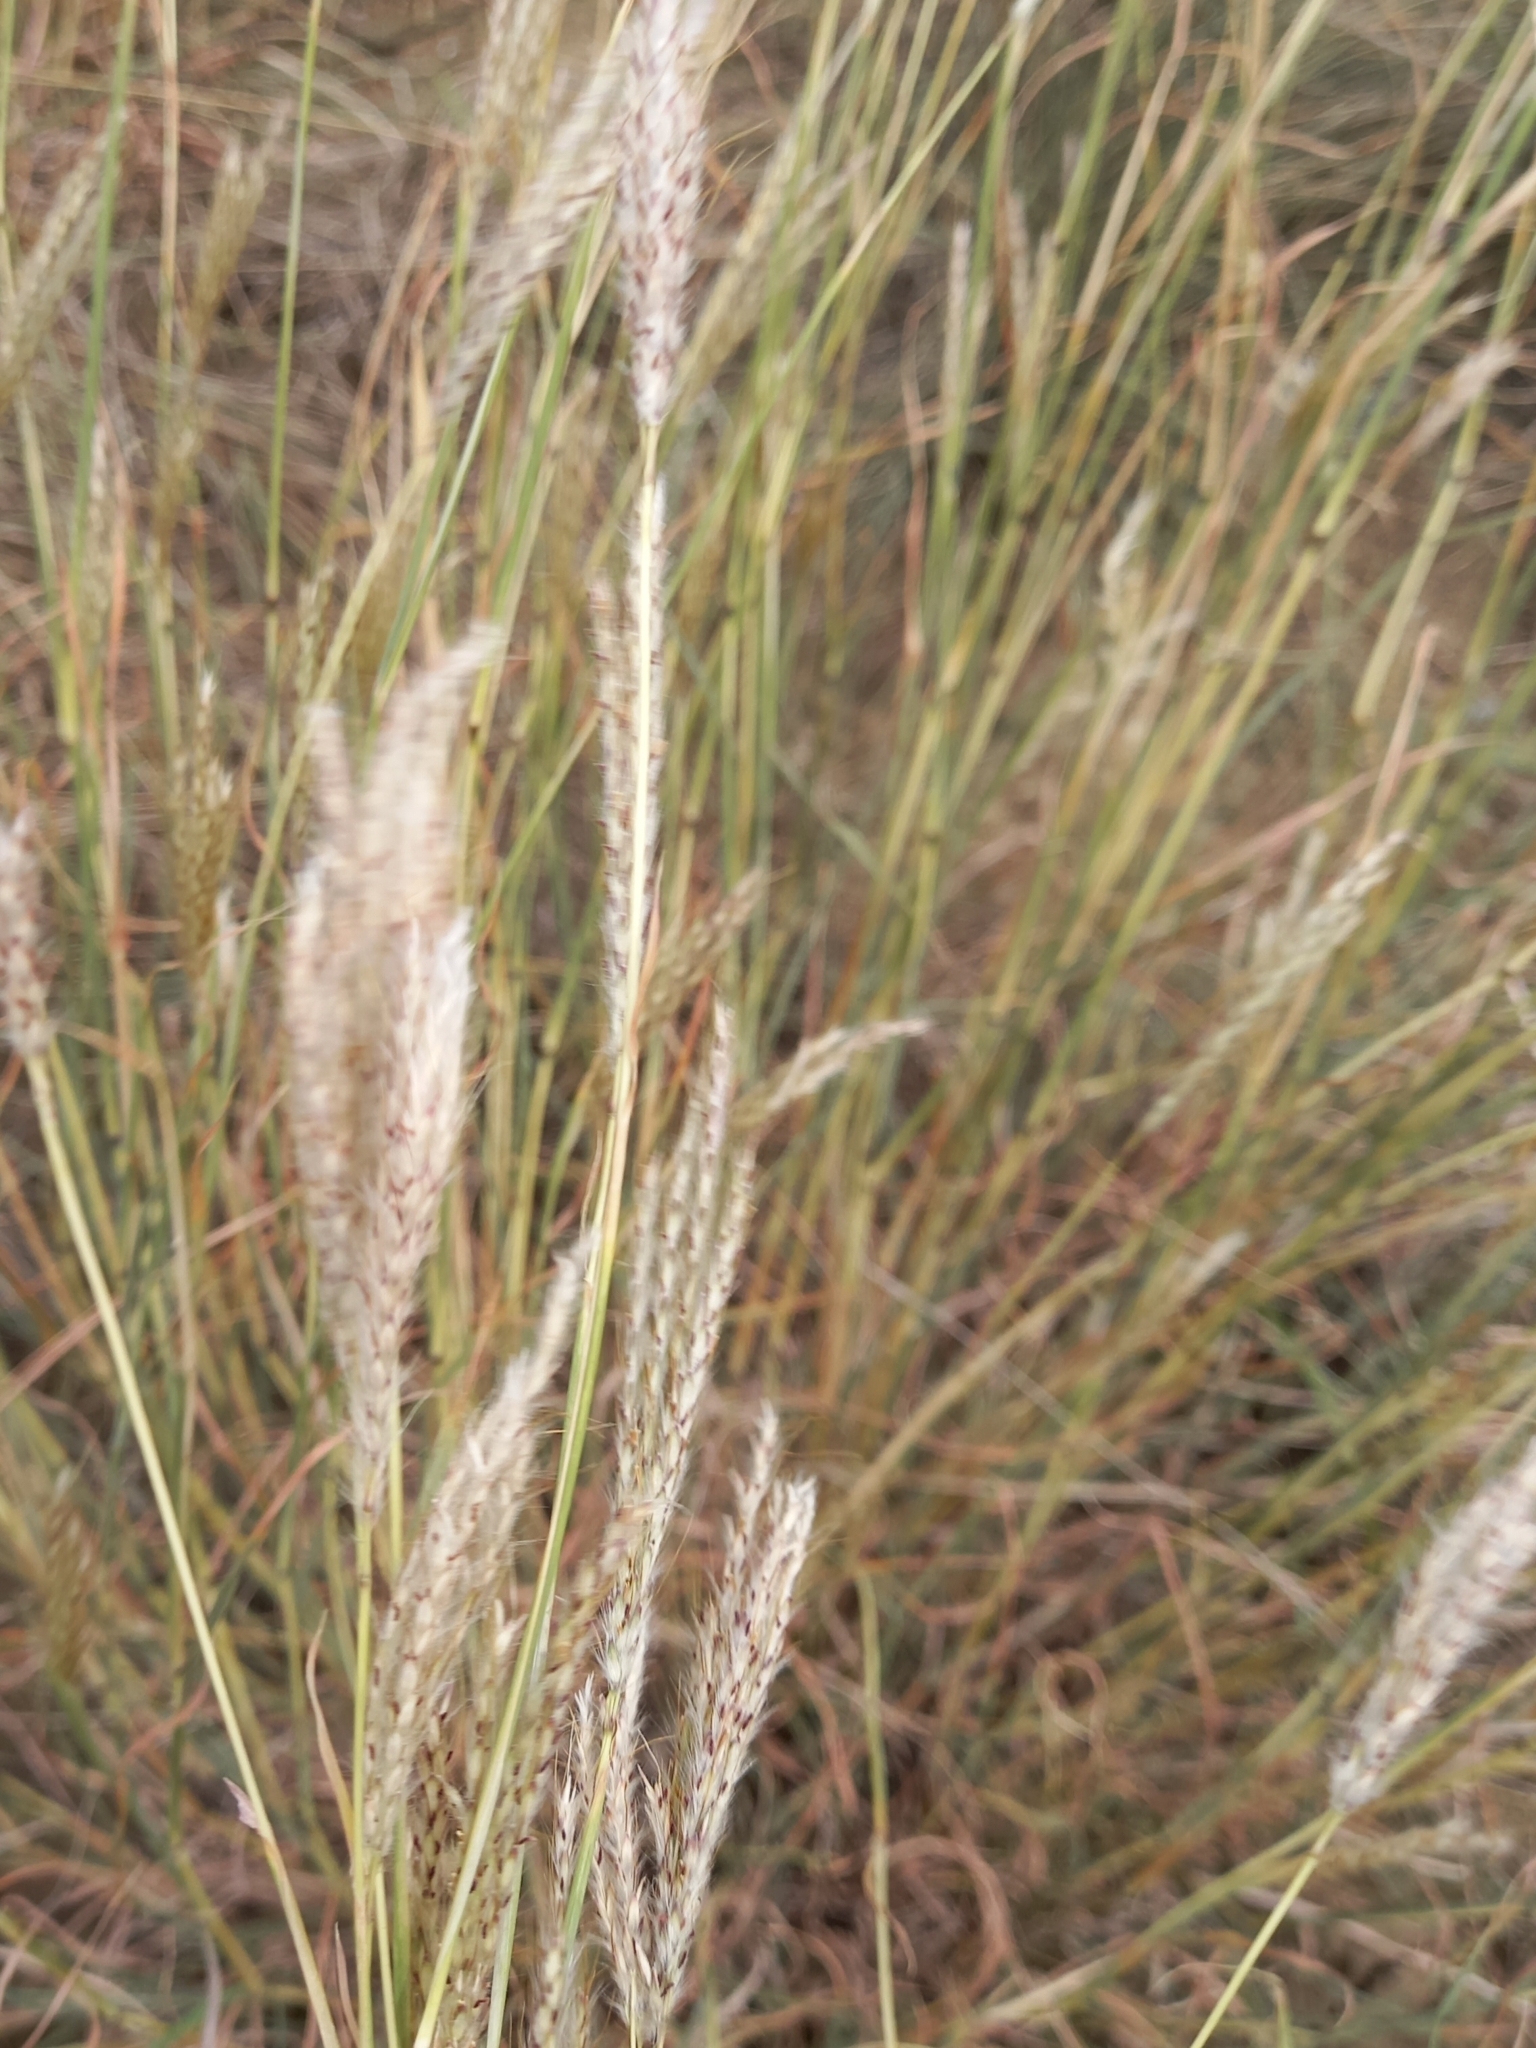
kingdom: Plantae
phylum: Tracheophyta
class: Liliopsida
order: Poales
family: Poaceae
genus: Bothriochloa
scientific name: Bothriochloa ischaemum
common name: Yellow bluestem
